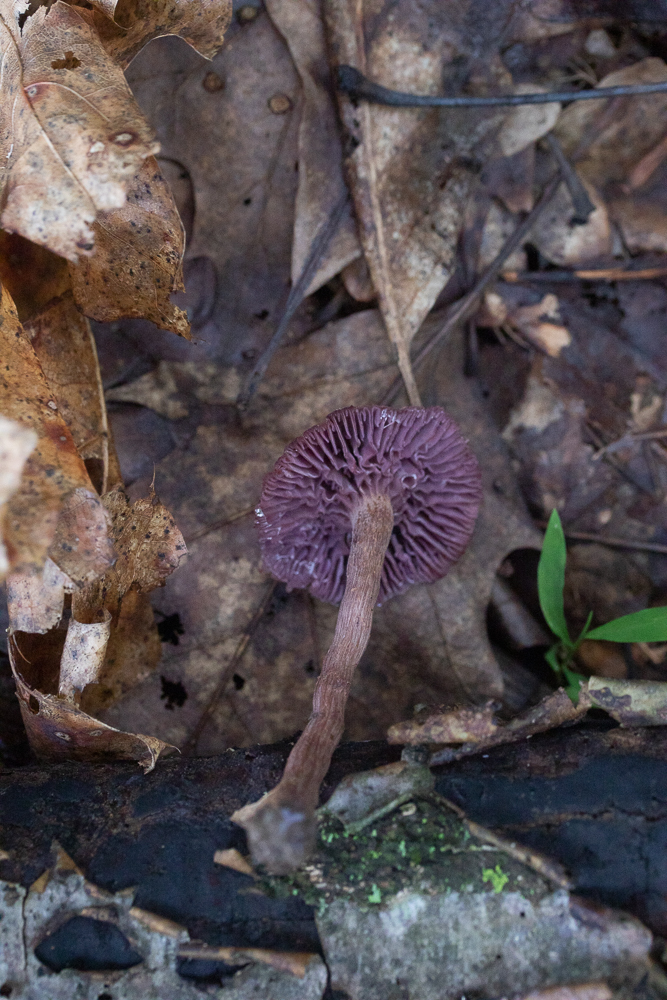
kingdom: Fungi
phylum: Basidiomycota
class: Agaricomycetes
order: Agaricales
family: Hydnangiaceae
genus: Laccaria
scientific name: Laccaria amethystina
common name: Amethyst deceiver
